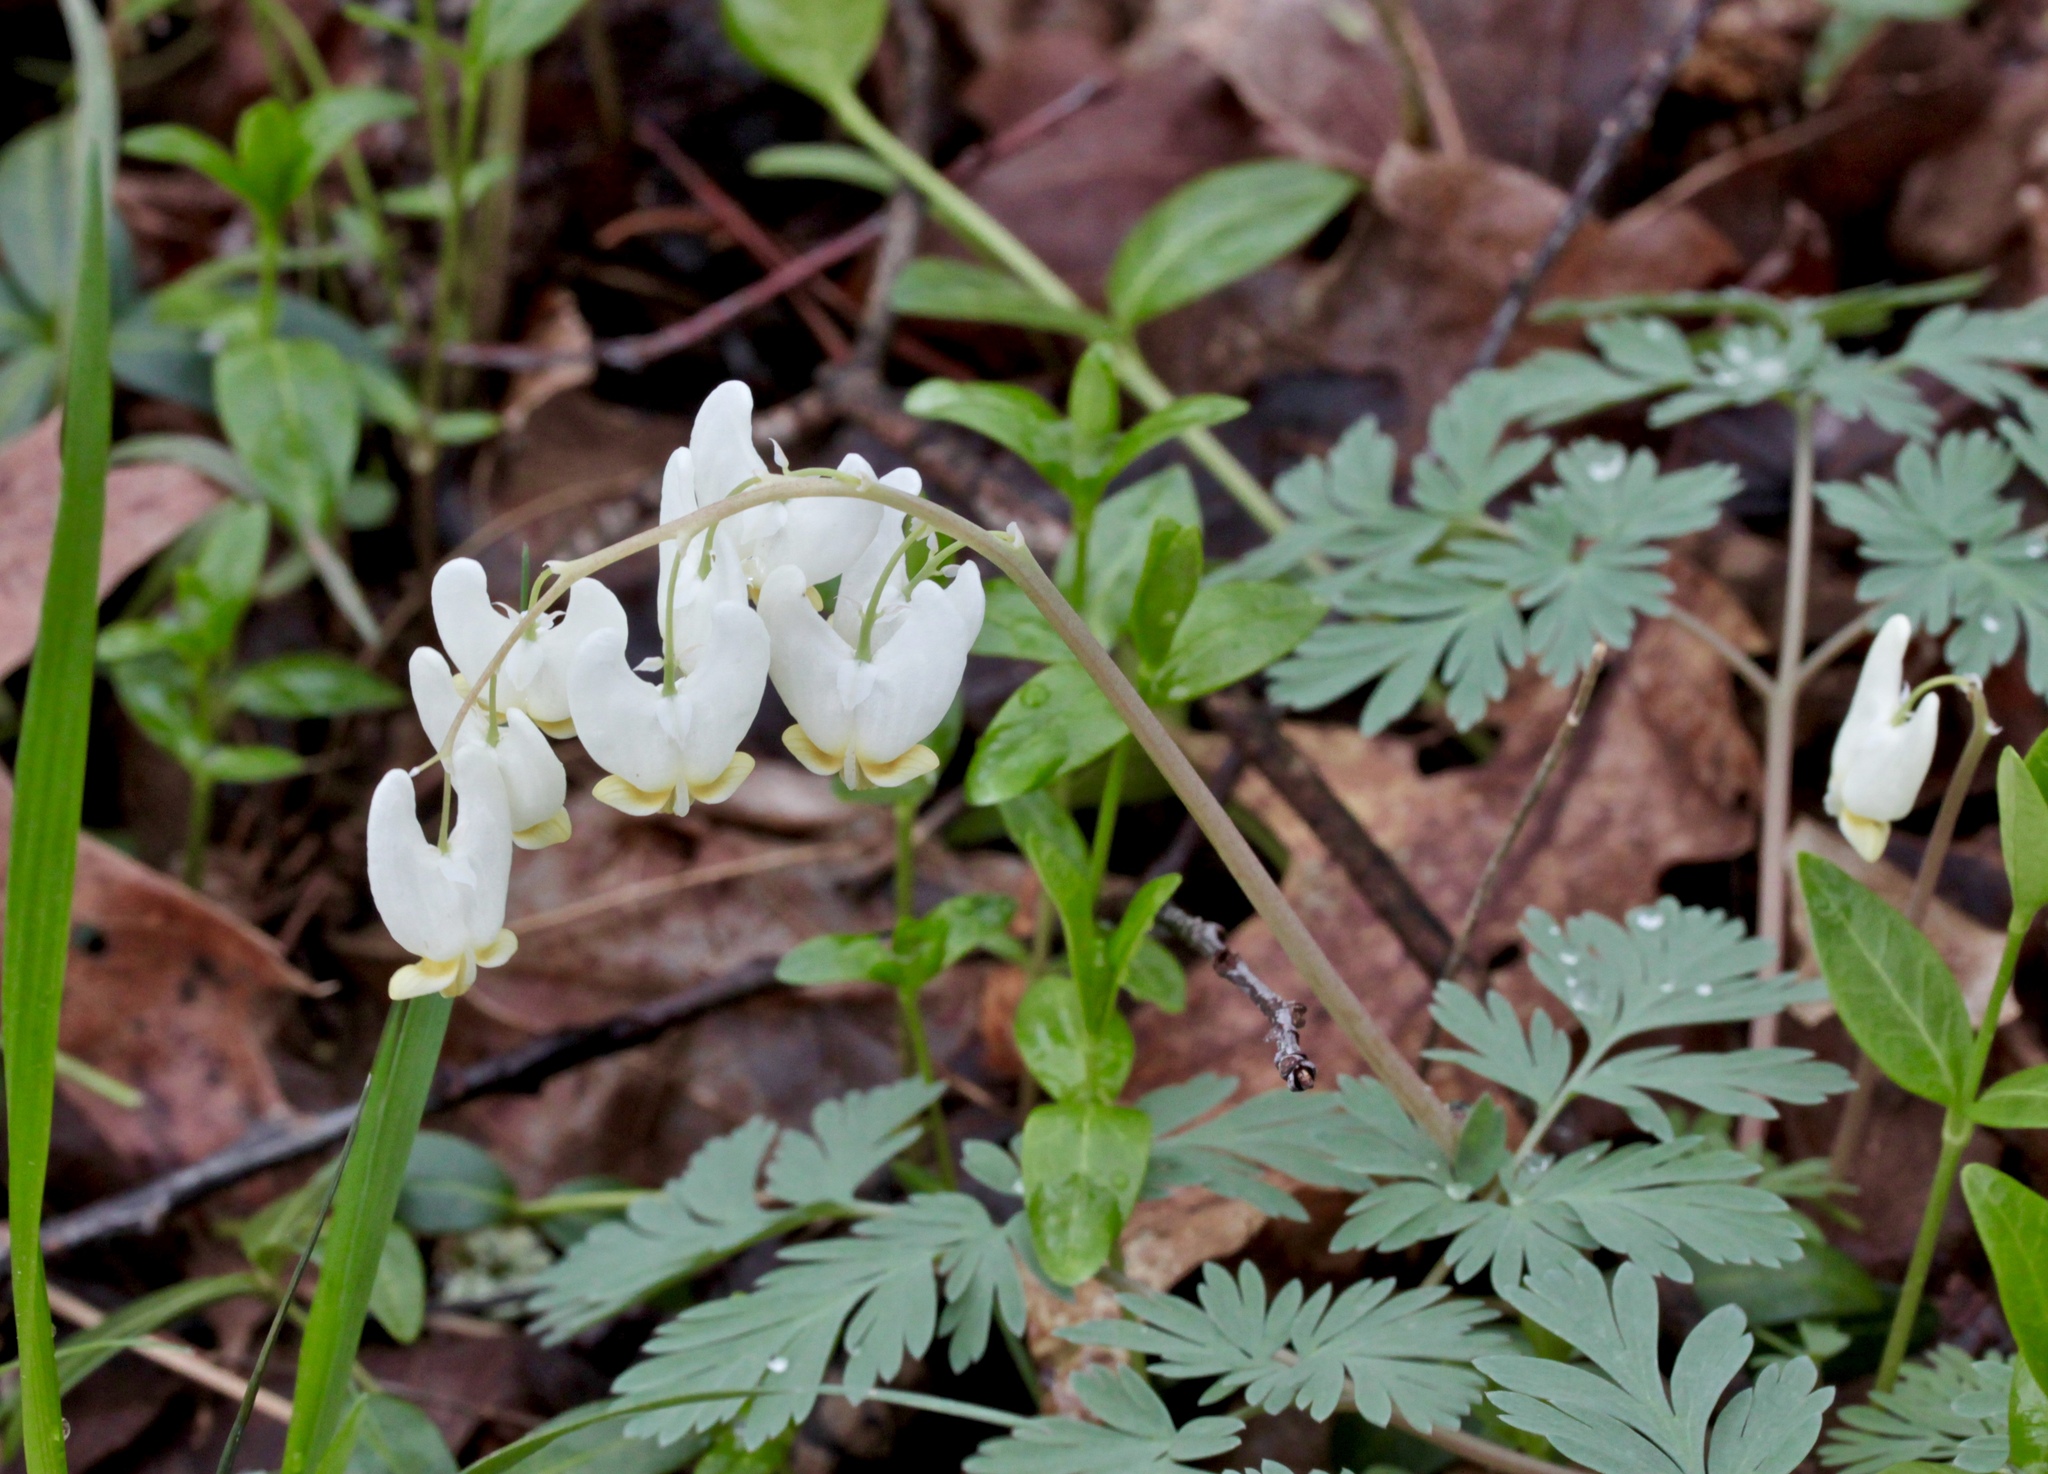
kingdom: Plantae
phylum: Tracheophyta
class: Magnoliopsida
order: Ranunculales
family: Papaveraceae
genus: Dicentra
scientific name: Dicentra cucullaria
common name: Dutchman's breeches
